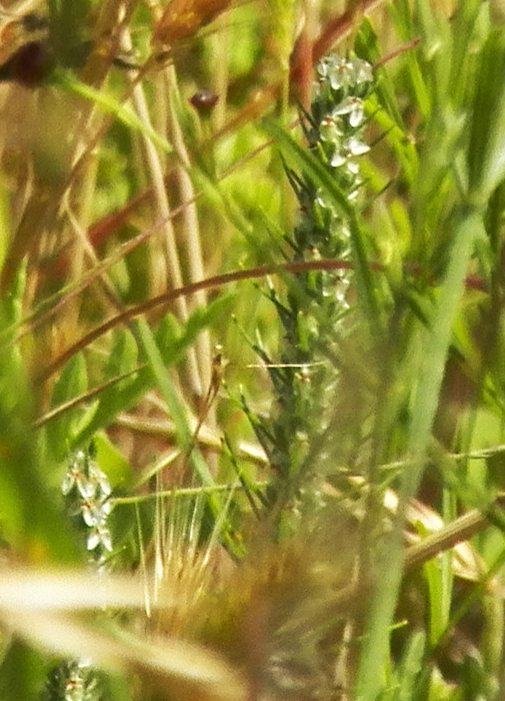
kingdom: Plantae
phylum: Tracheophyta
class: Magnoliopsida
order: Lamiales
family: Plantaginaceae
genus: Plantago
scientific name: Plantago aristata
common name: Bracted plantain
